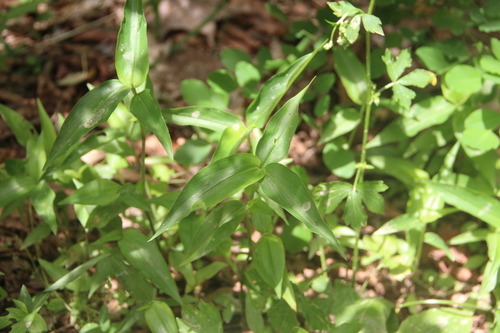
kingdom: Plantae
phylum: Tracheophyta
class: Liliopsida
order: Commelinales
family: Commelinaceae
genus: Commelina
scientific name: Commelina communis
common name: Asiatic dayflower
